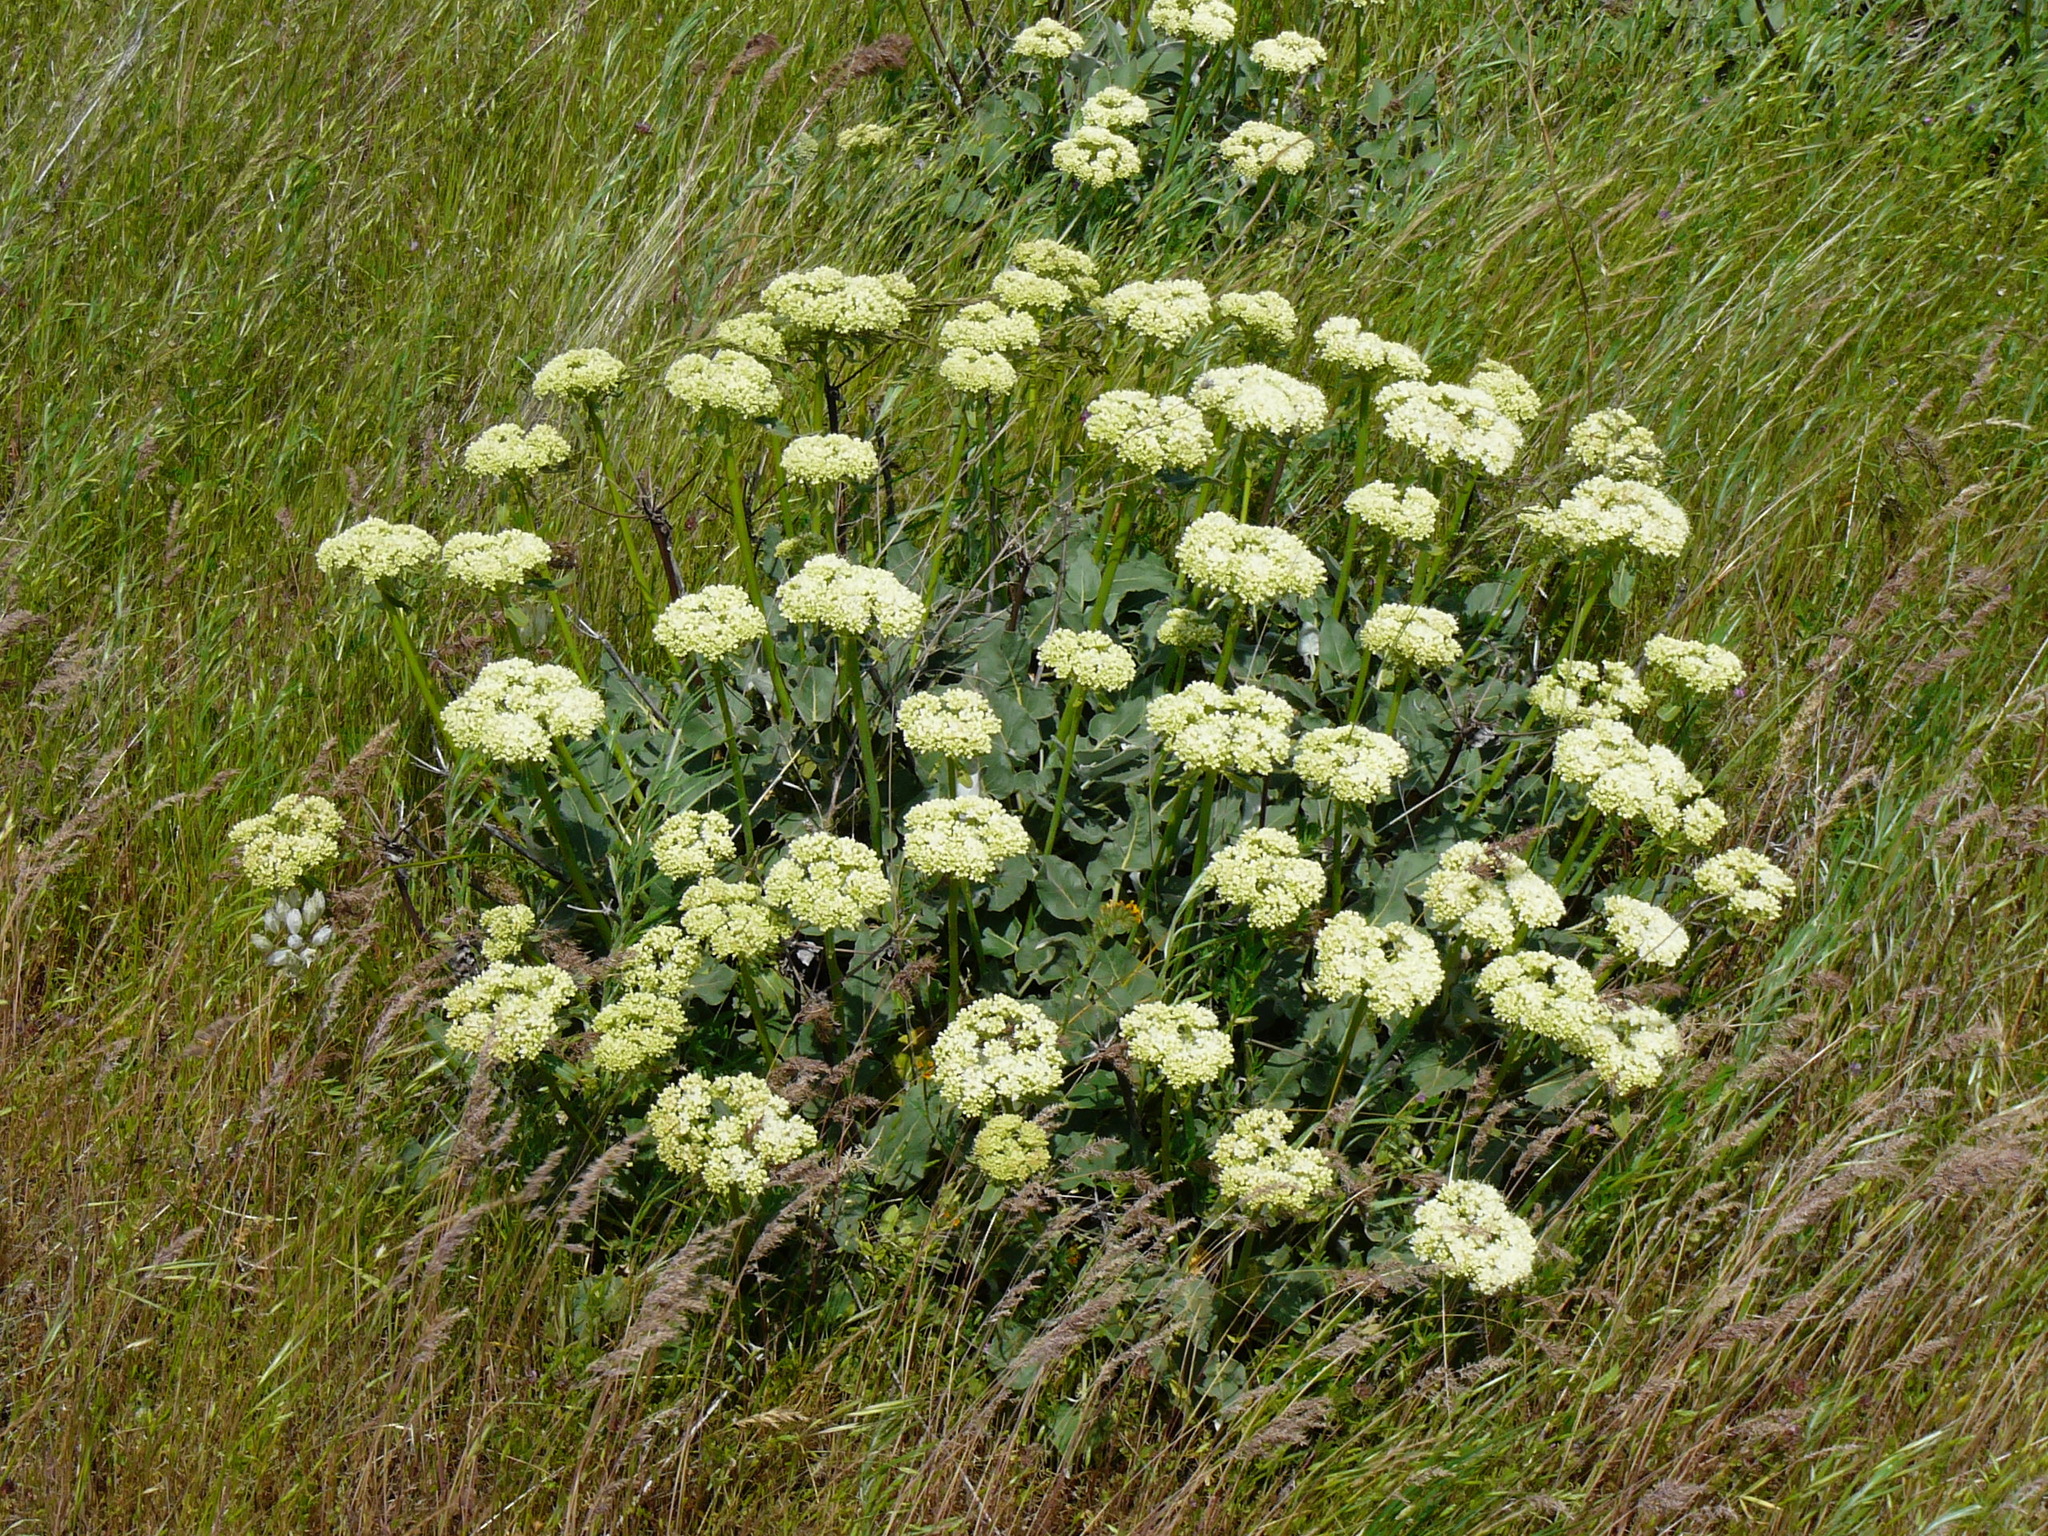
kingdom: Plantae
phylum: Tracheophyta
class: Magnoliopsida
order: Caryophyllales
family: Polygonaceae
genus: Eriogonum
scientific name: Eriogonum compositum
